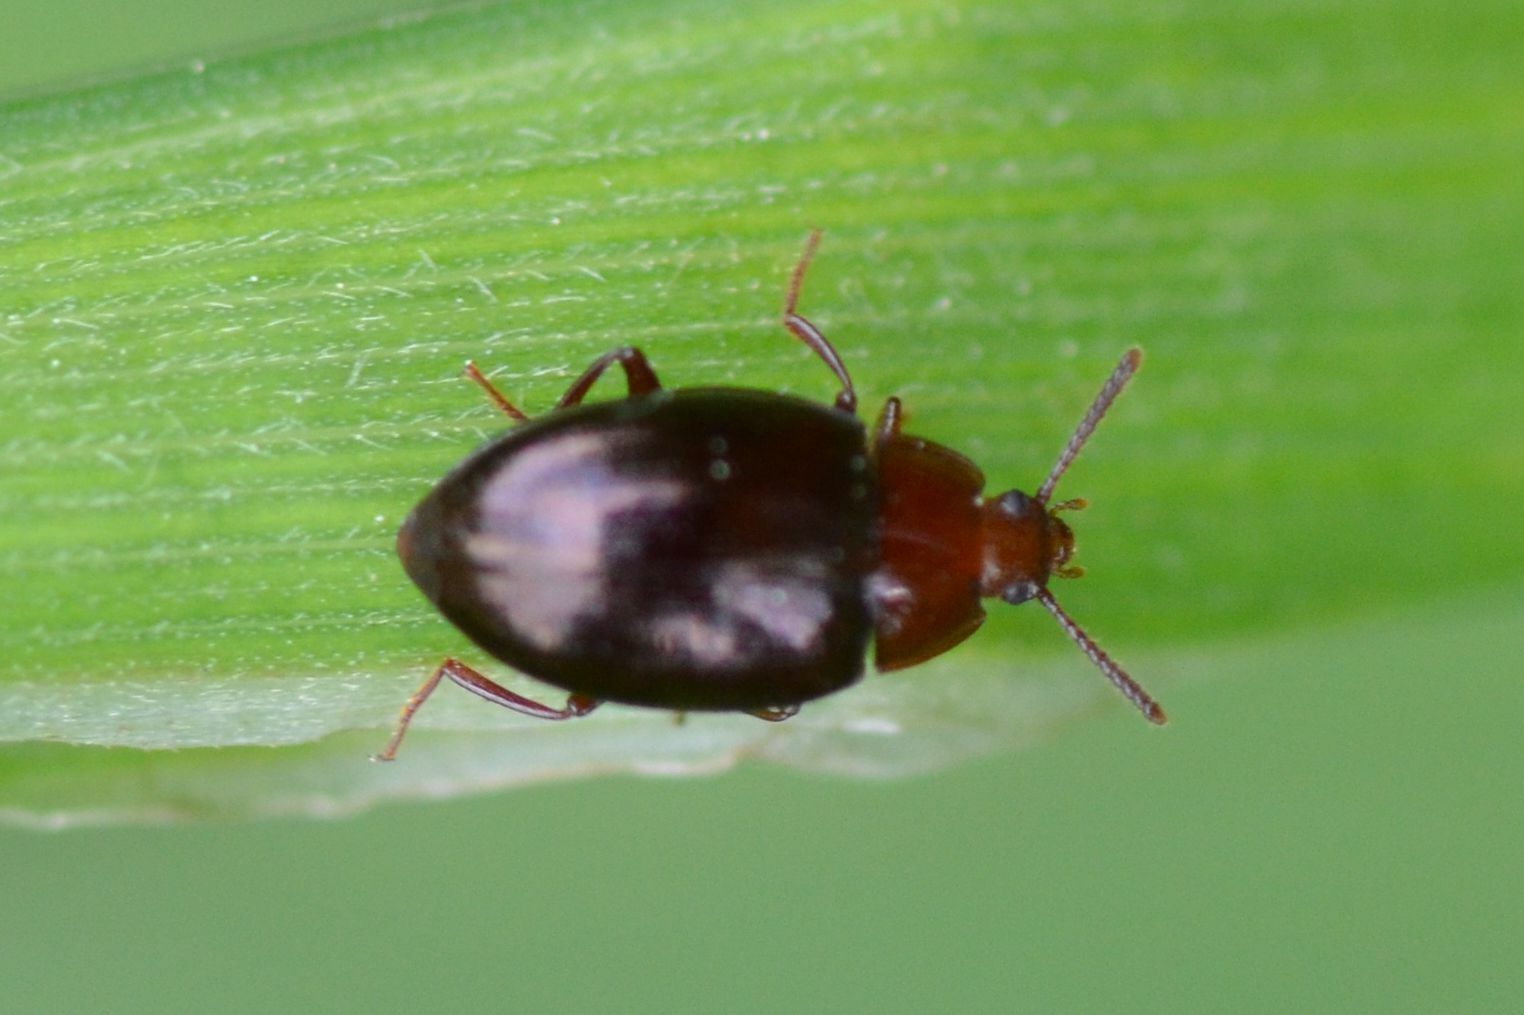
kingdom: Animalia
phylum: Arthropoda
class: Insecta
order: Coleoptera
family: Tenebrionidae
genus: Blapstinus
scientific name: Blapstinus metallicus
